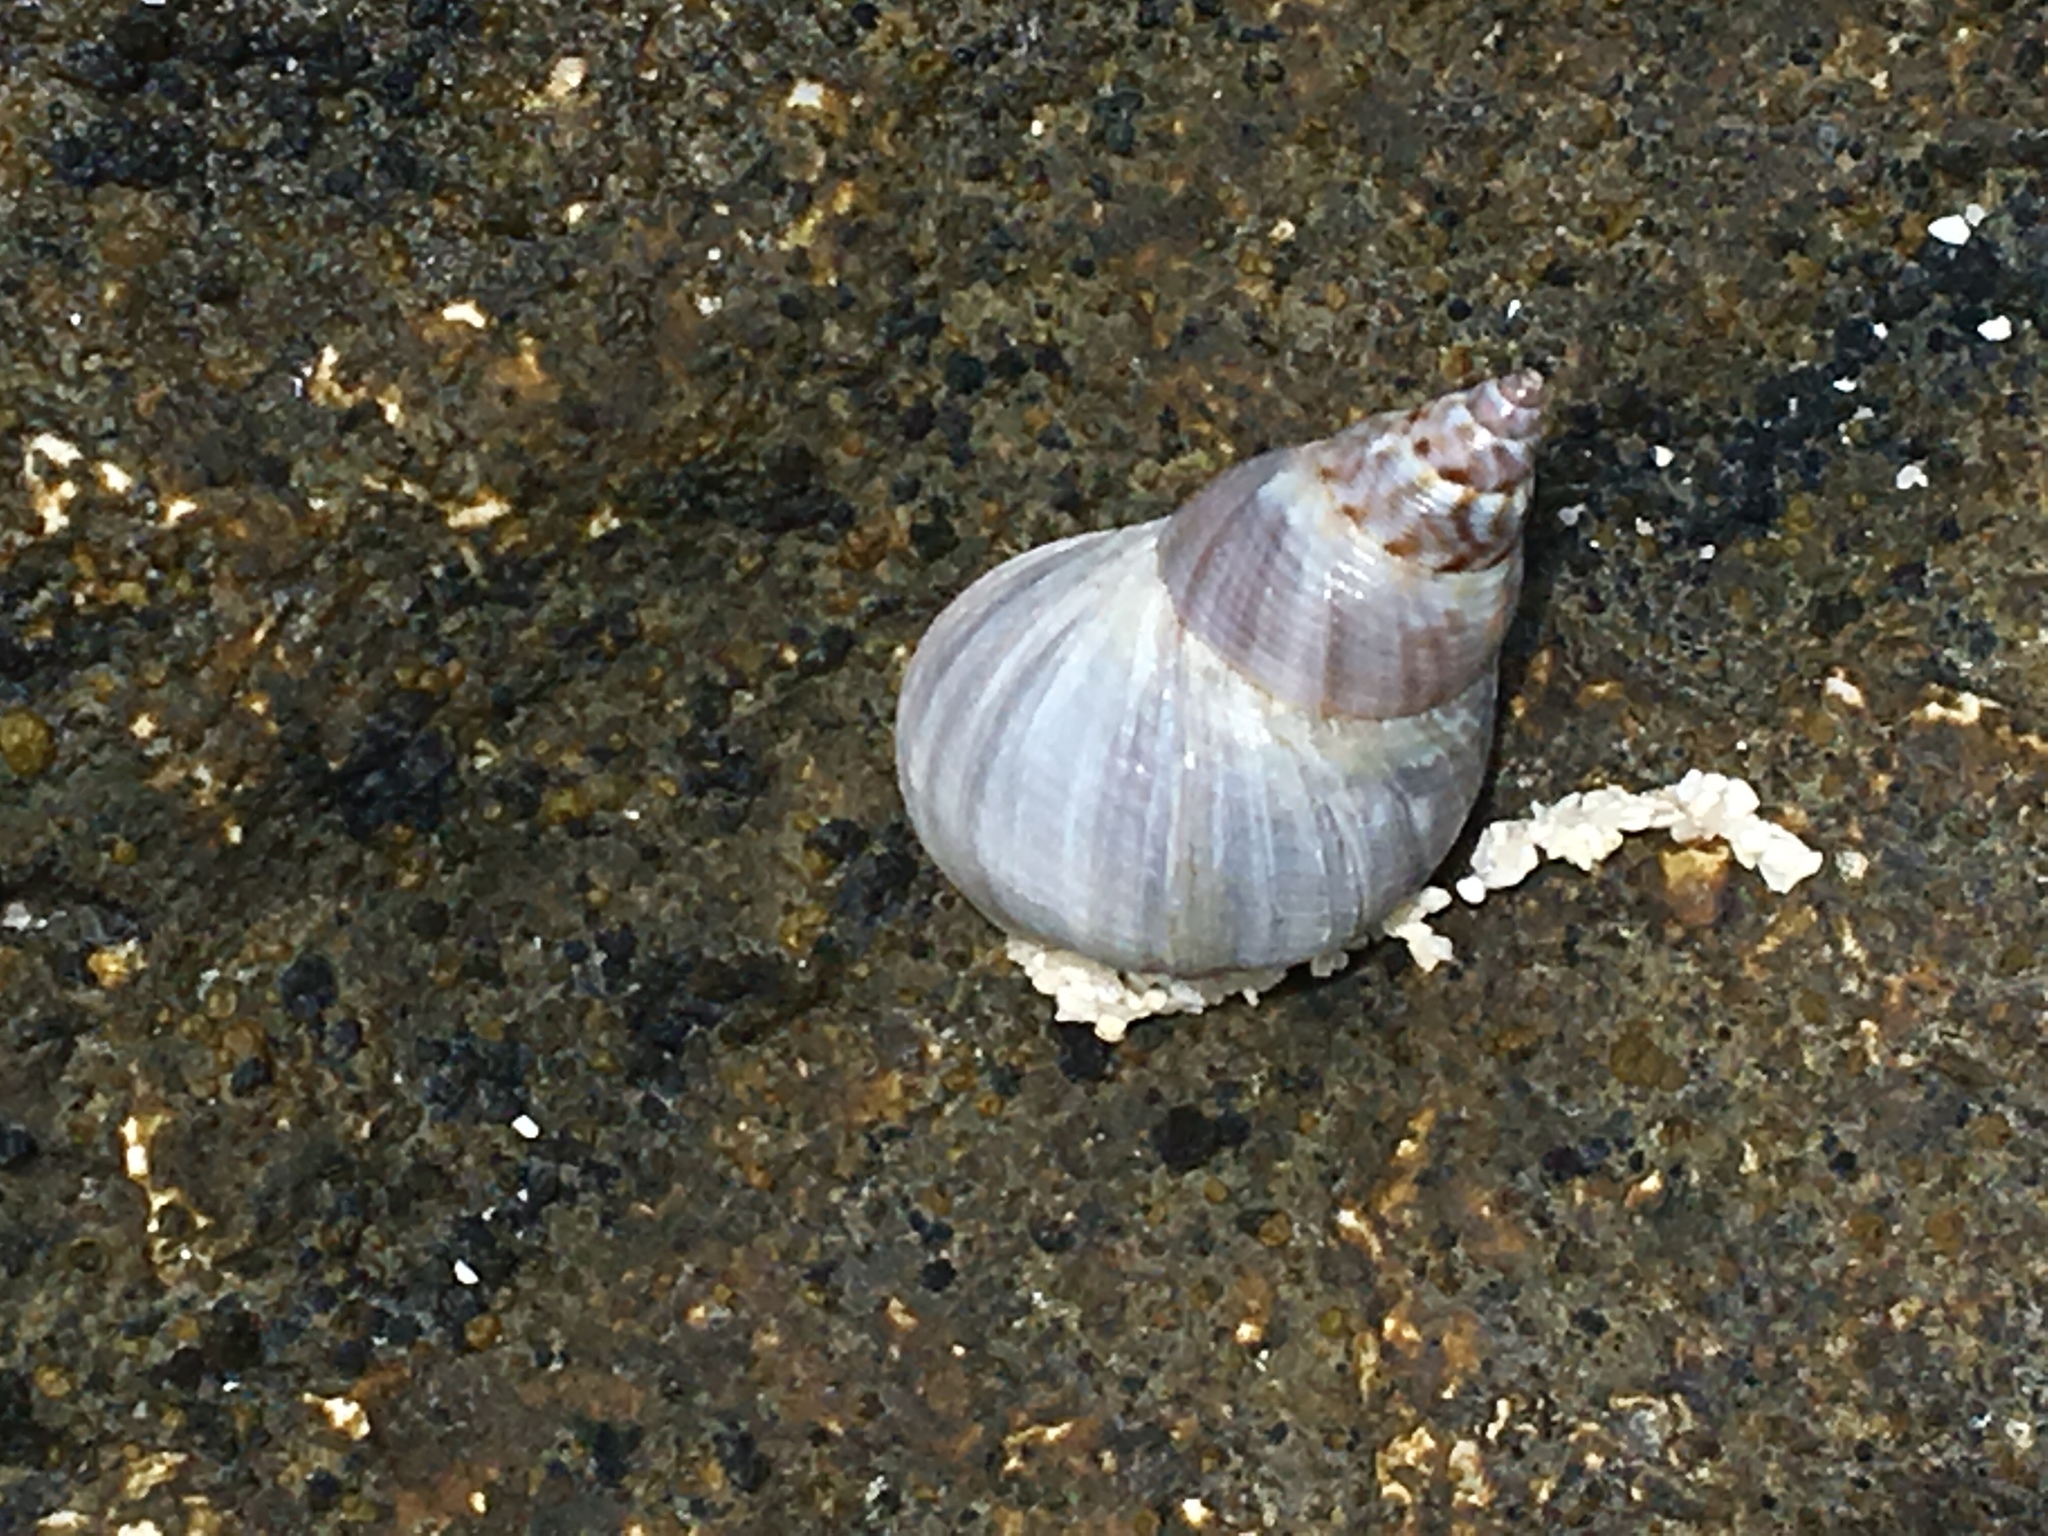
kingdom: Animalia
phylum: Mollusca
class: Gastropoda
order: Littorinimorpha
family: Littorinidae
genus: Littoraria
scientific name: Littoraria undulata
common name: Robust shell
